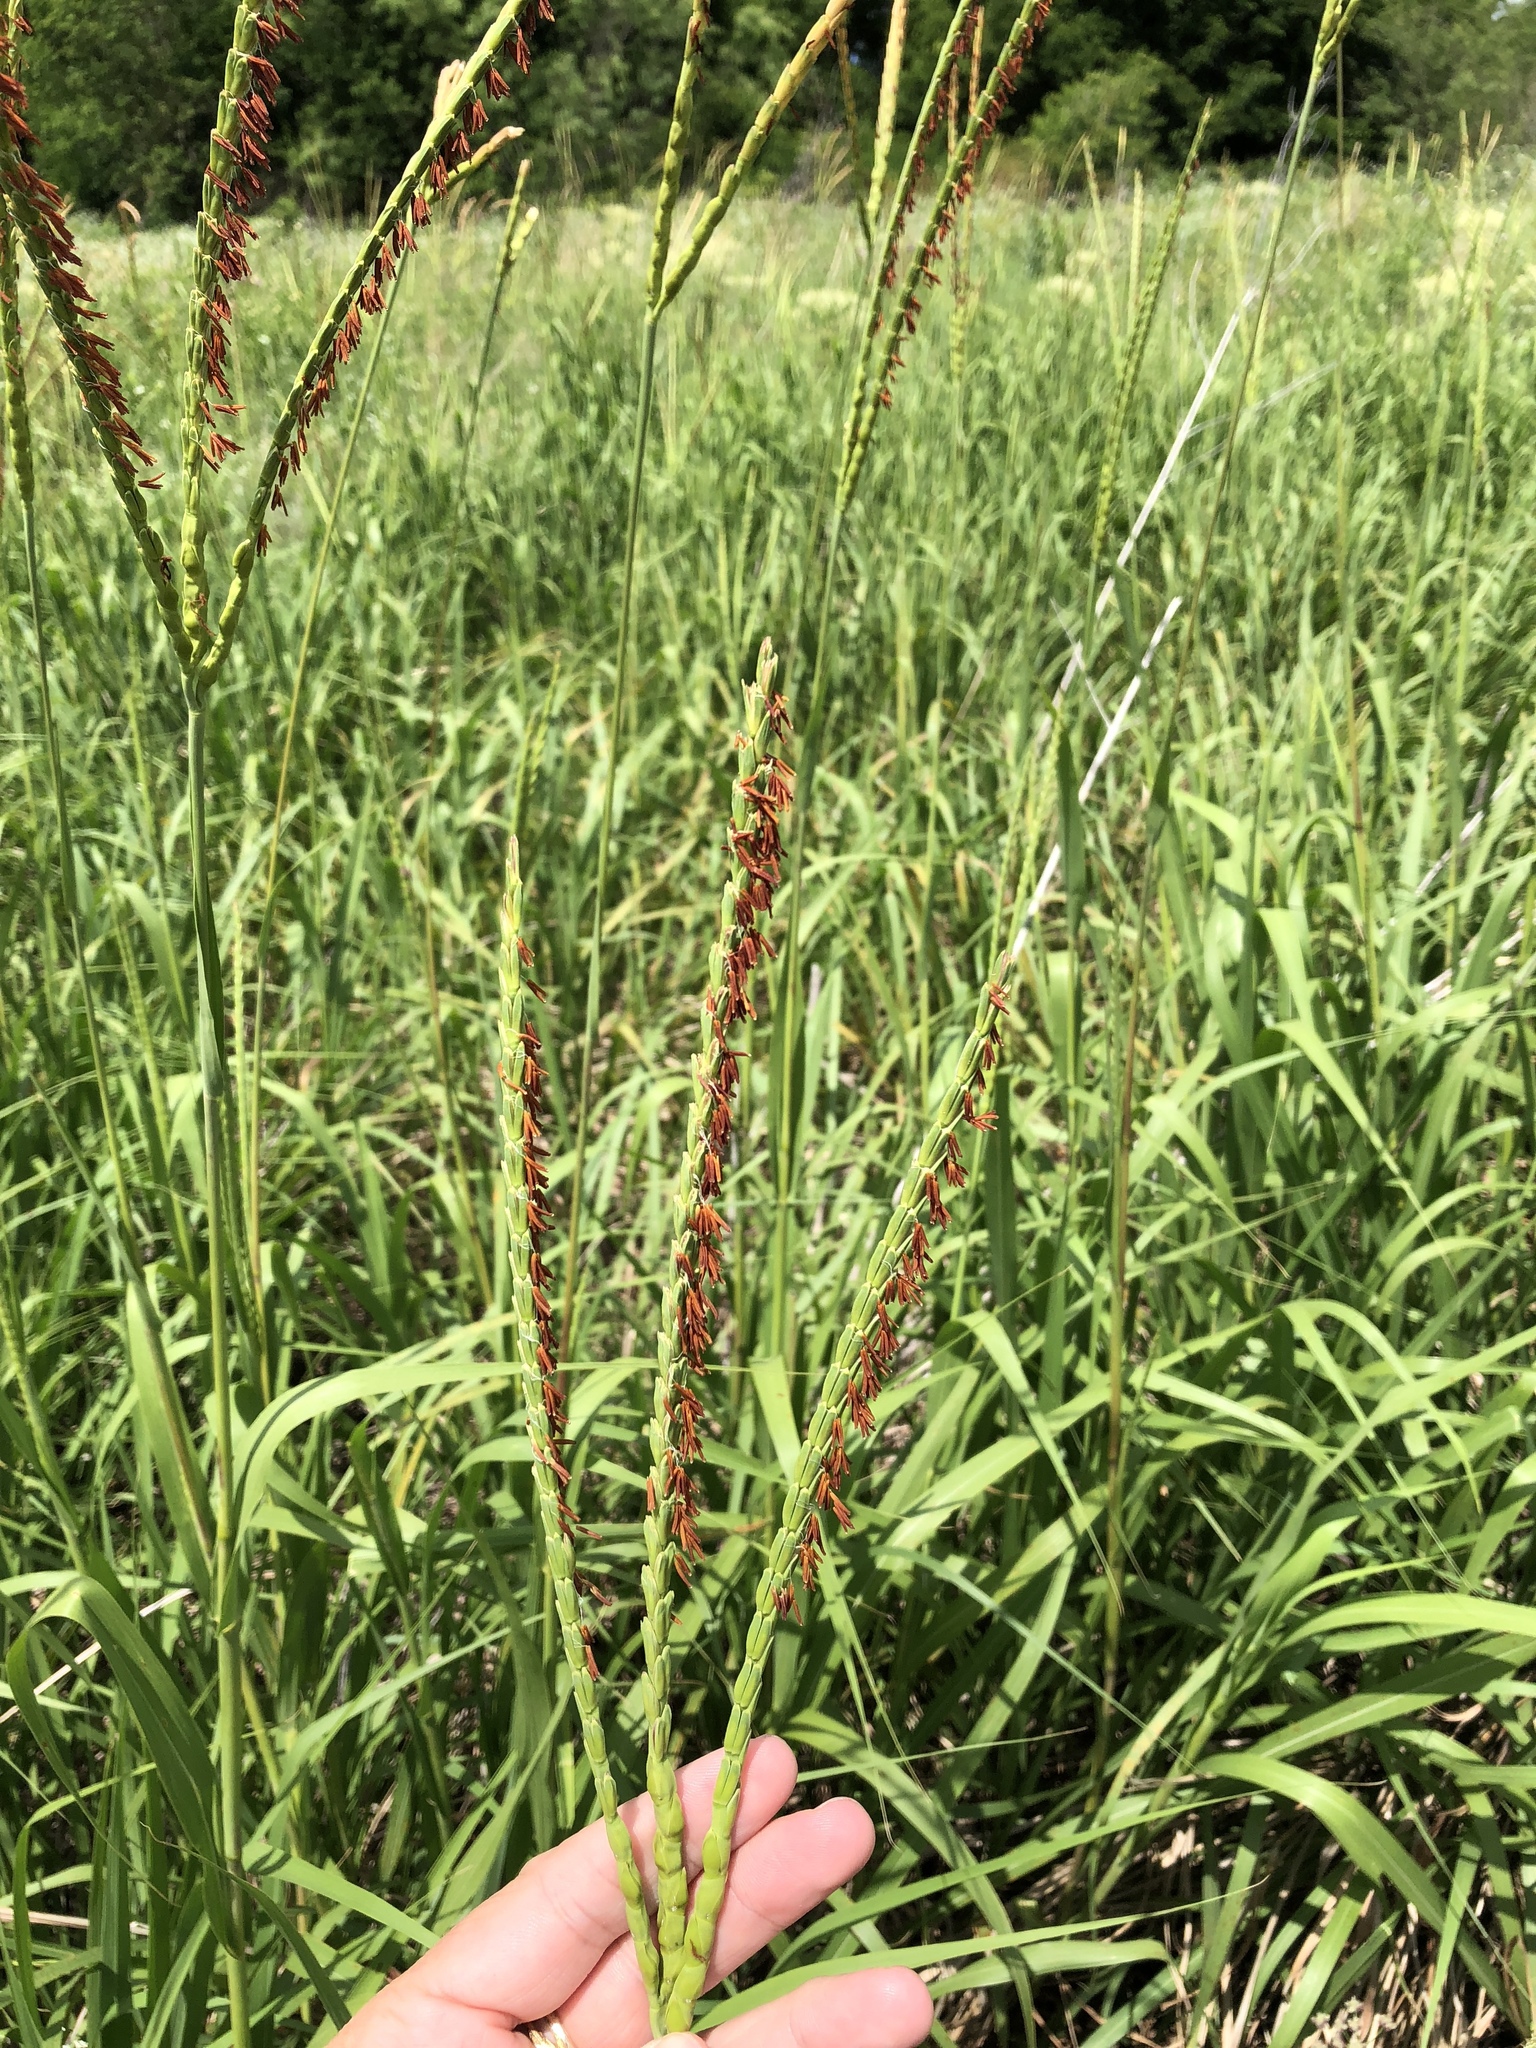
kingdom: Plantae
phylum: Tracheophyta
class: Liliopsida
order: Poales
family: Poaceae
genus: Tripsacum
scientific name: Tripsacum dactyloides
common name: Buffalo-grass
